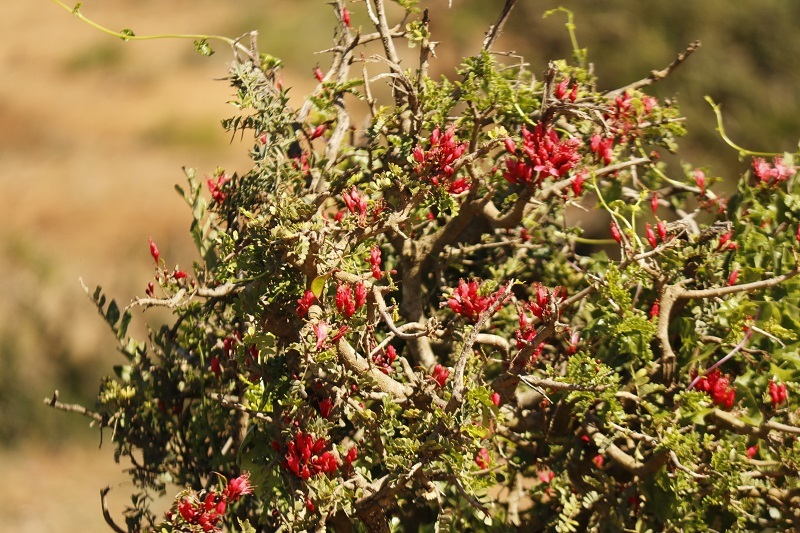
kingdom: Plantae
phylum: Tracheophyta
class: Magnoliopsida
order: Fabales
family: Fabaceae
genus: Schotia
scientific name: Schotia afra
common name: Hottentot's bean
